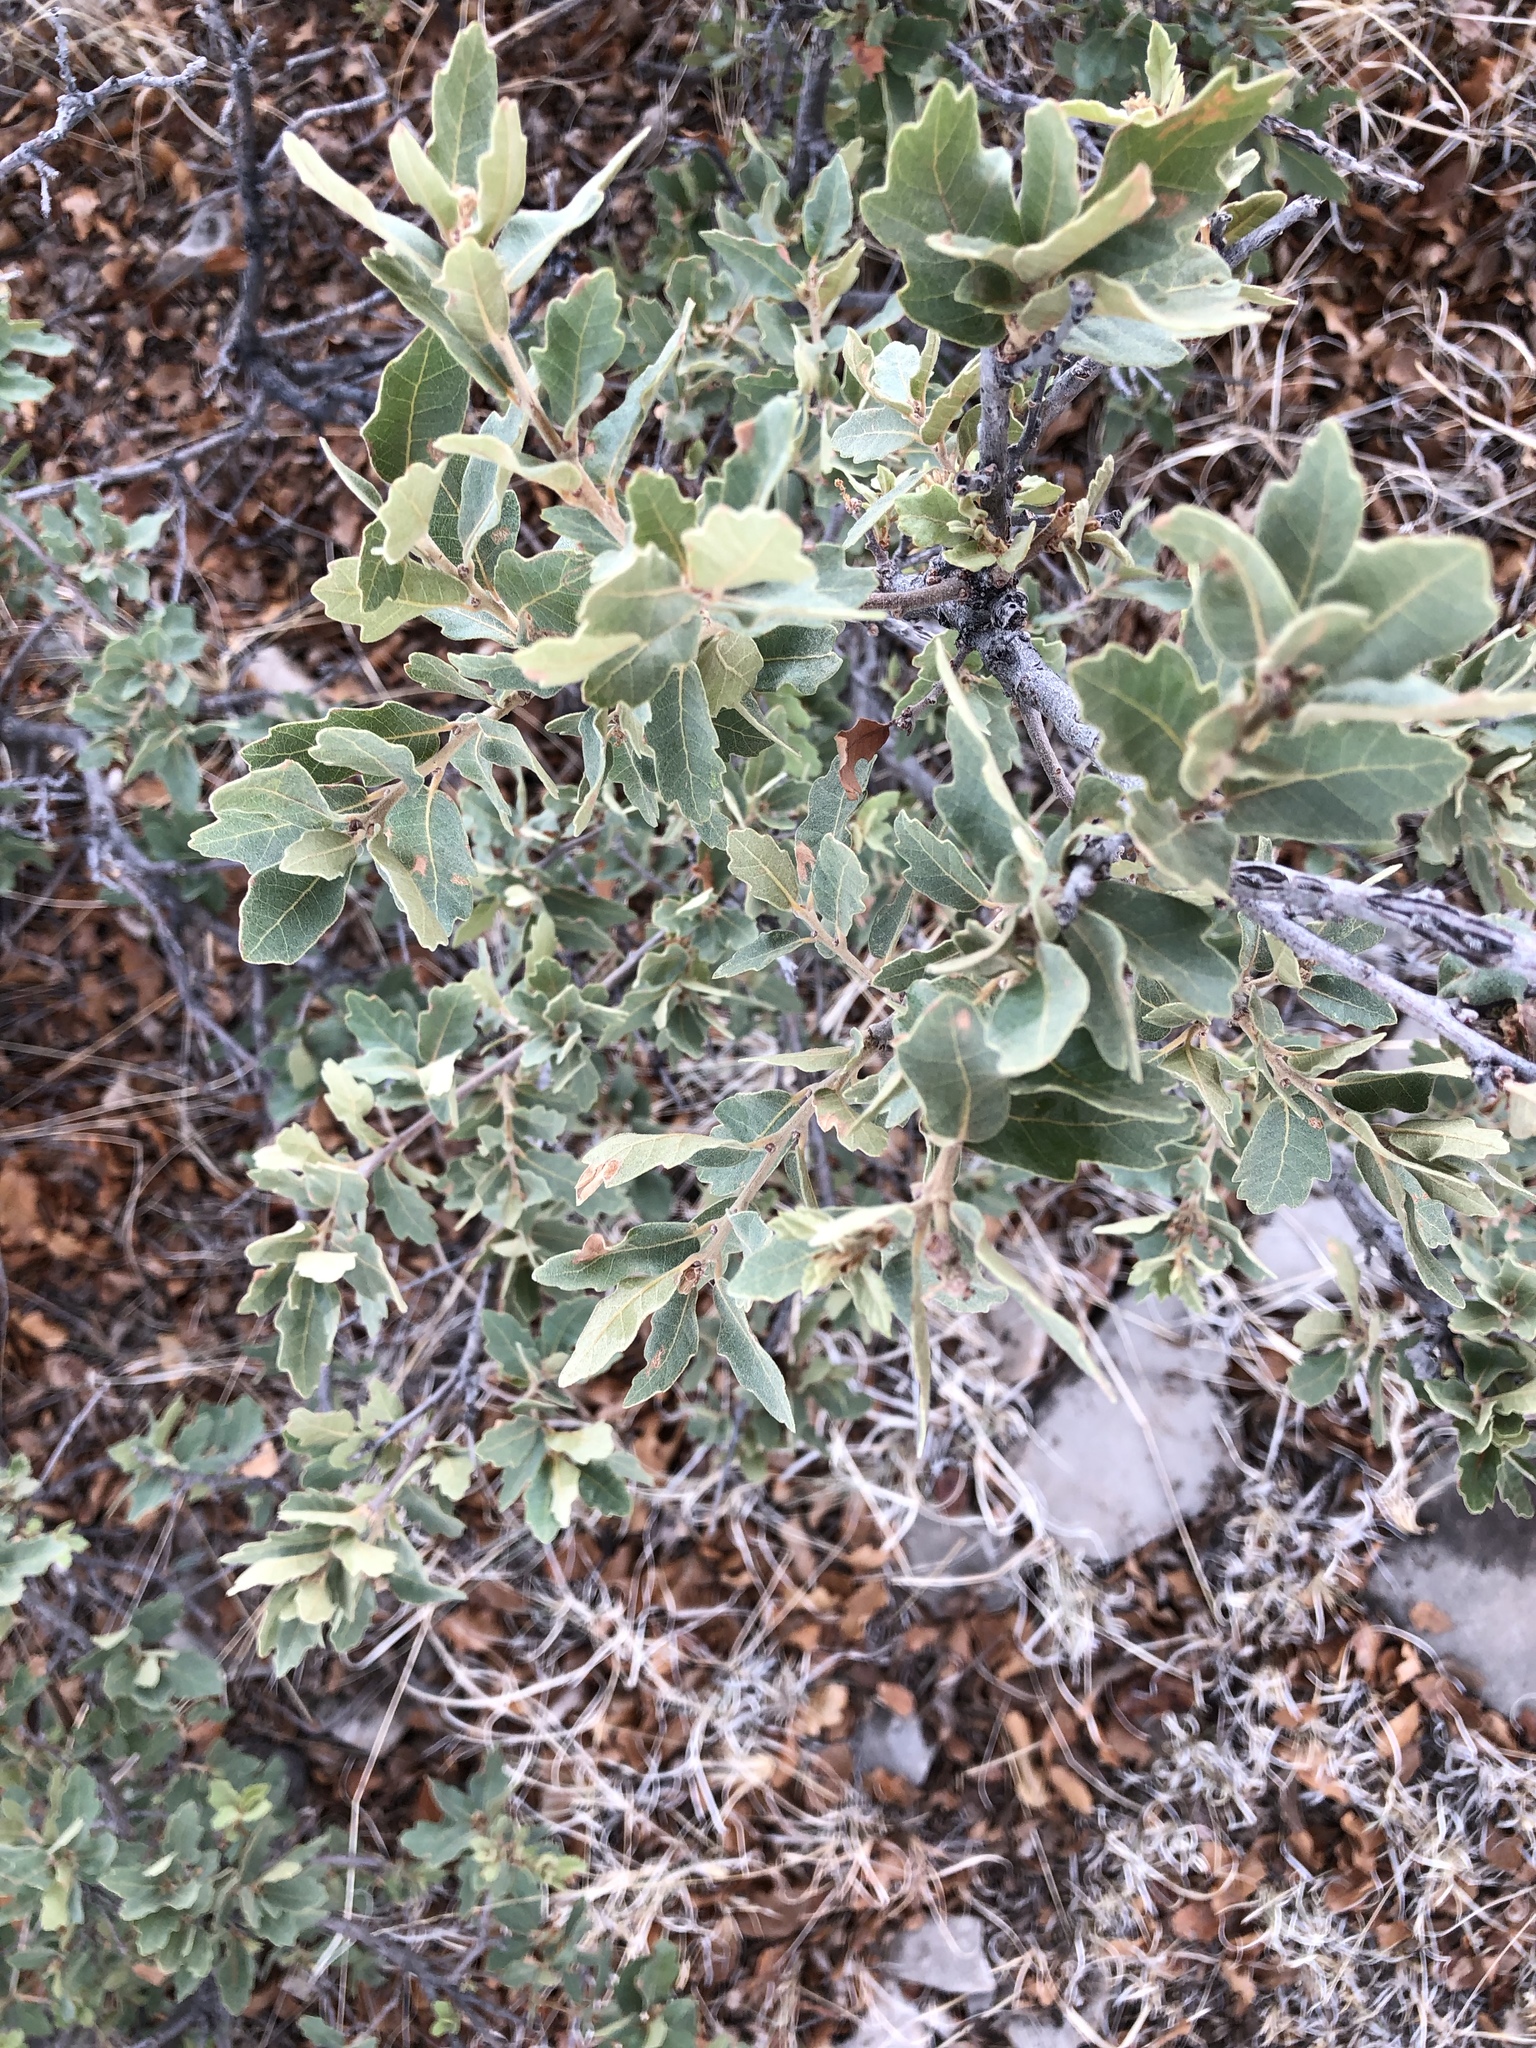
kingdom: Plantae
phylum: Tracheophyta
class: Magnoliopsida
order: Fagales
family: Fagaceae
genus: Quercus
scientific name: Quercus undulata
